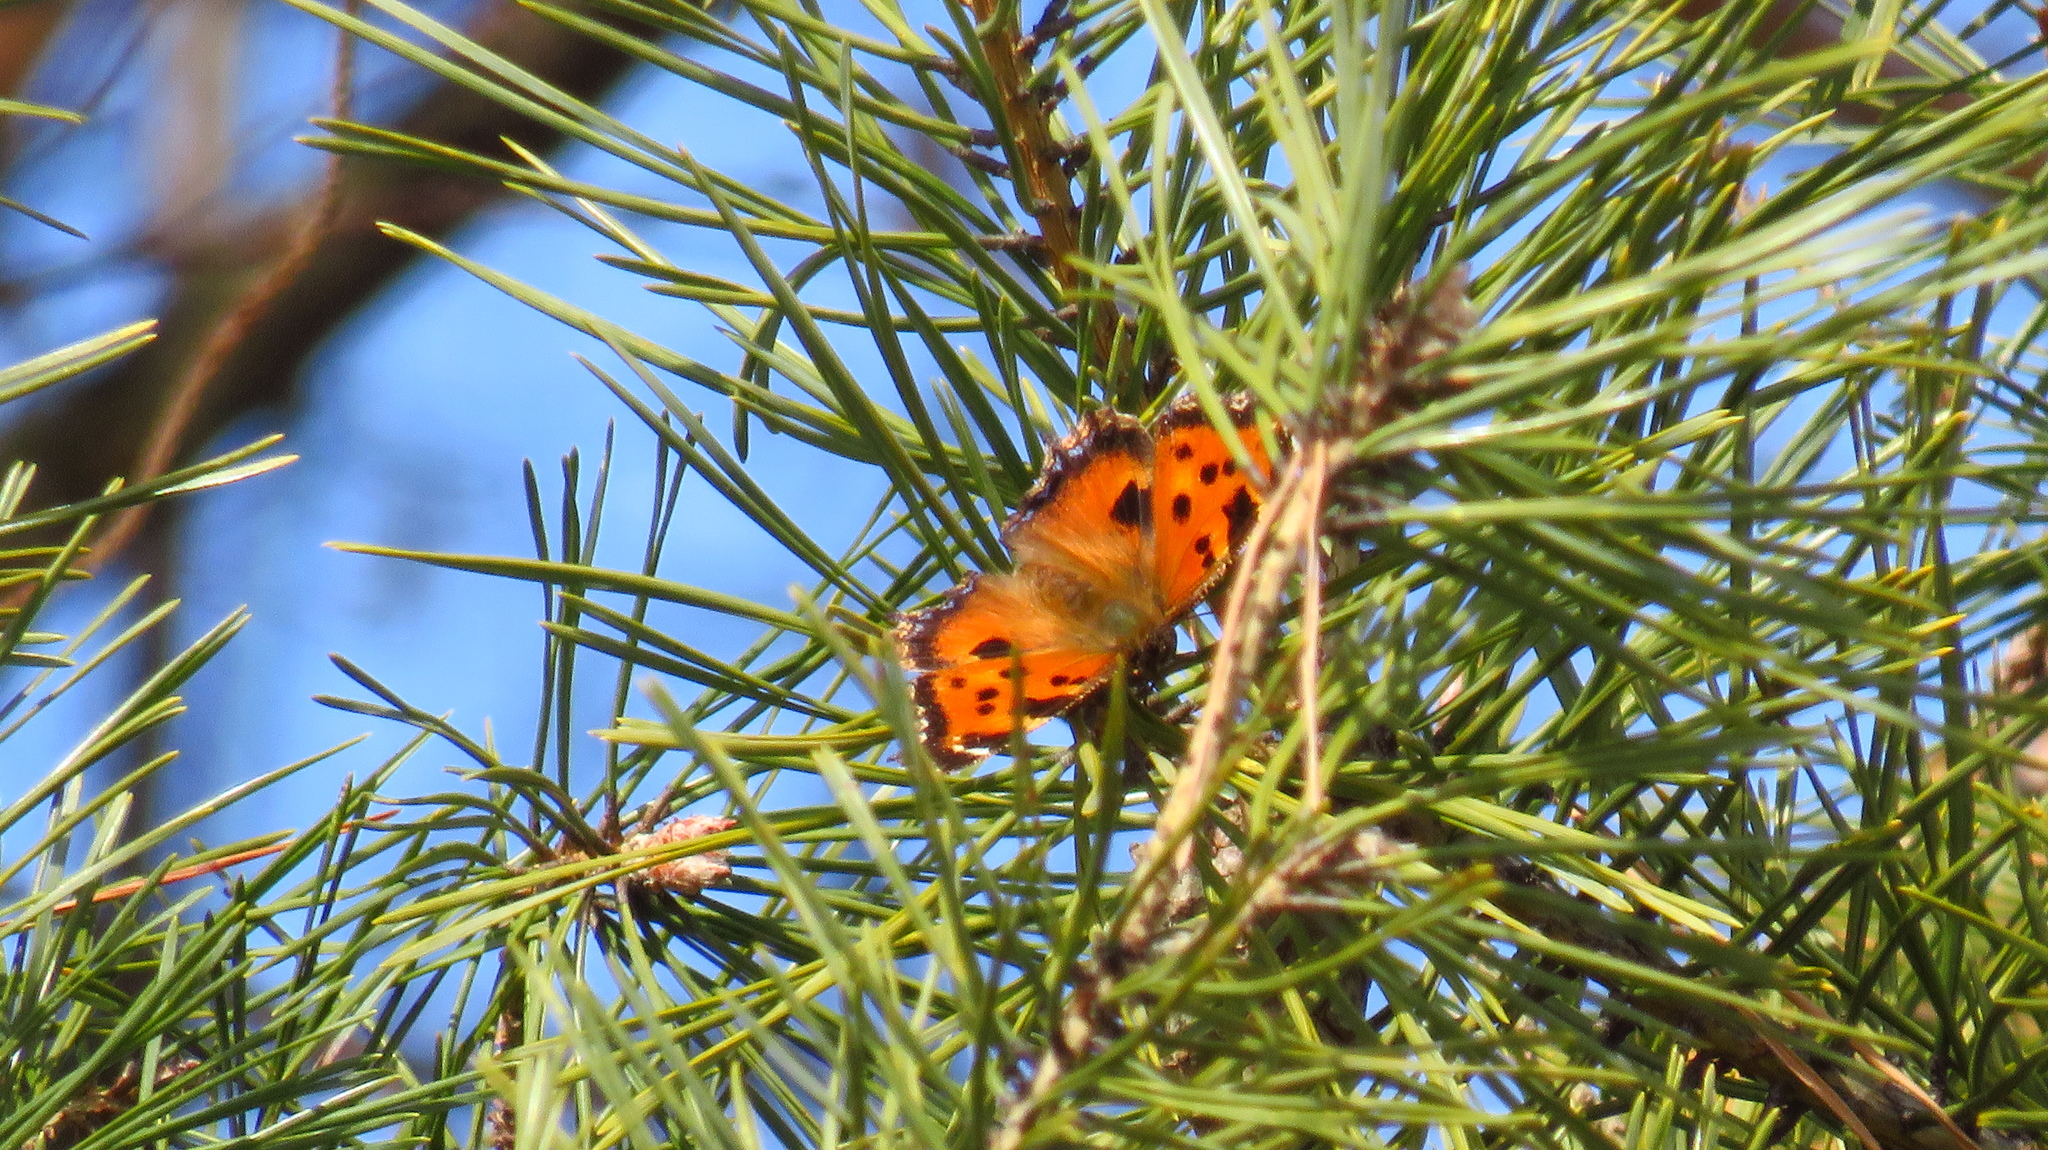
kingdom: Animalia
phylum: Arthropoda
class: Insecta
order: Lepidoptera
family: Nymphalidae
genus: Nymphalis
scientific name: Nymphalis xanthomelas
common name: Scarce tortoiseshell
